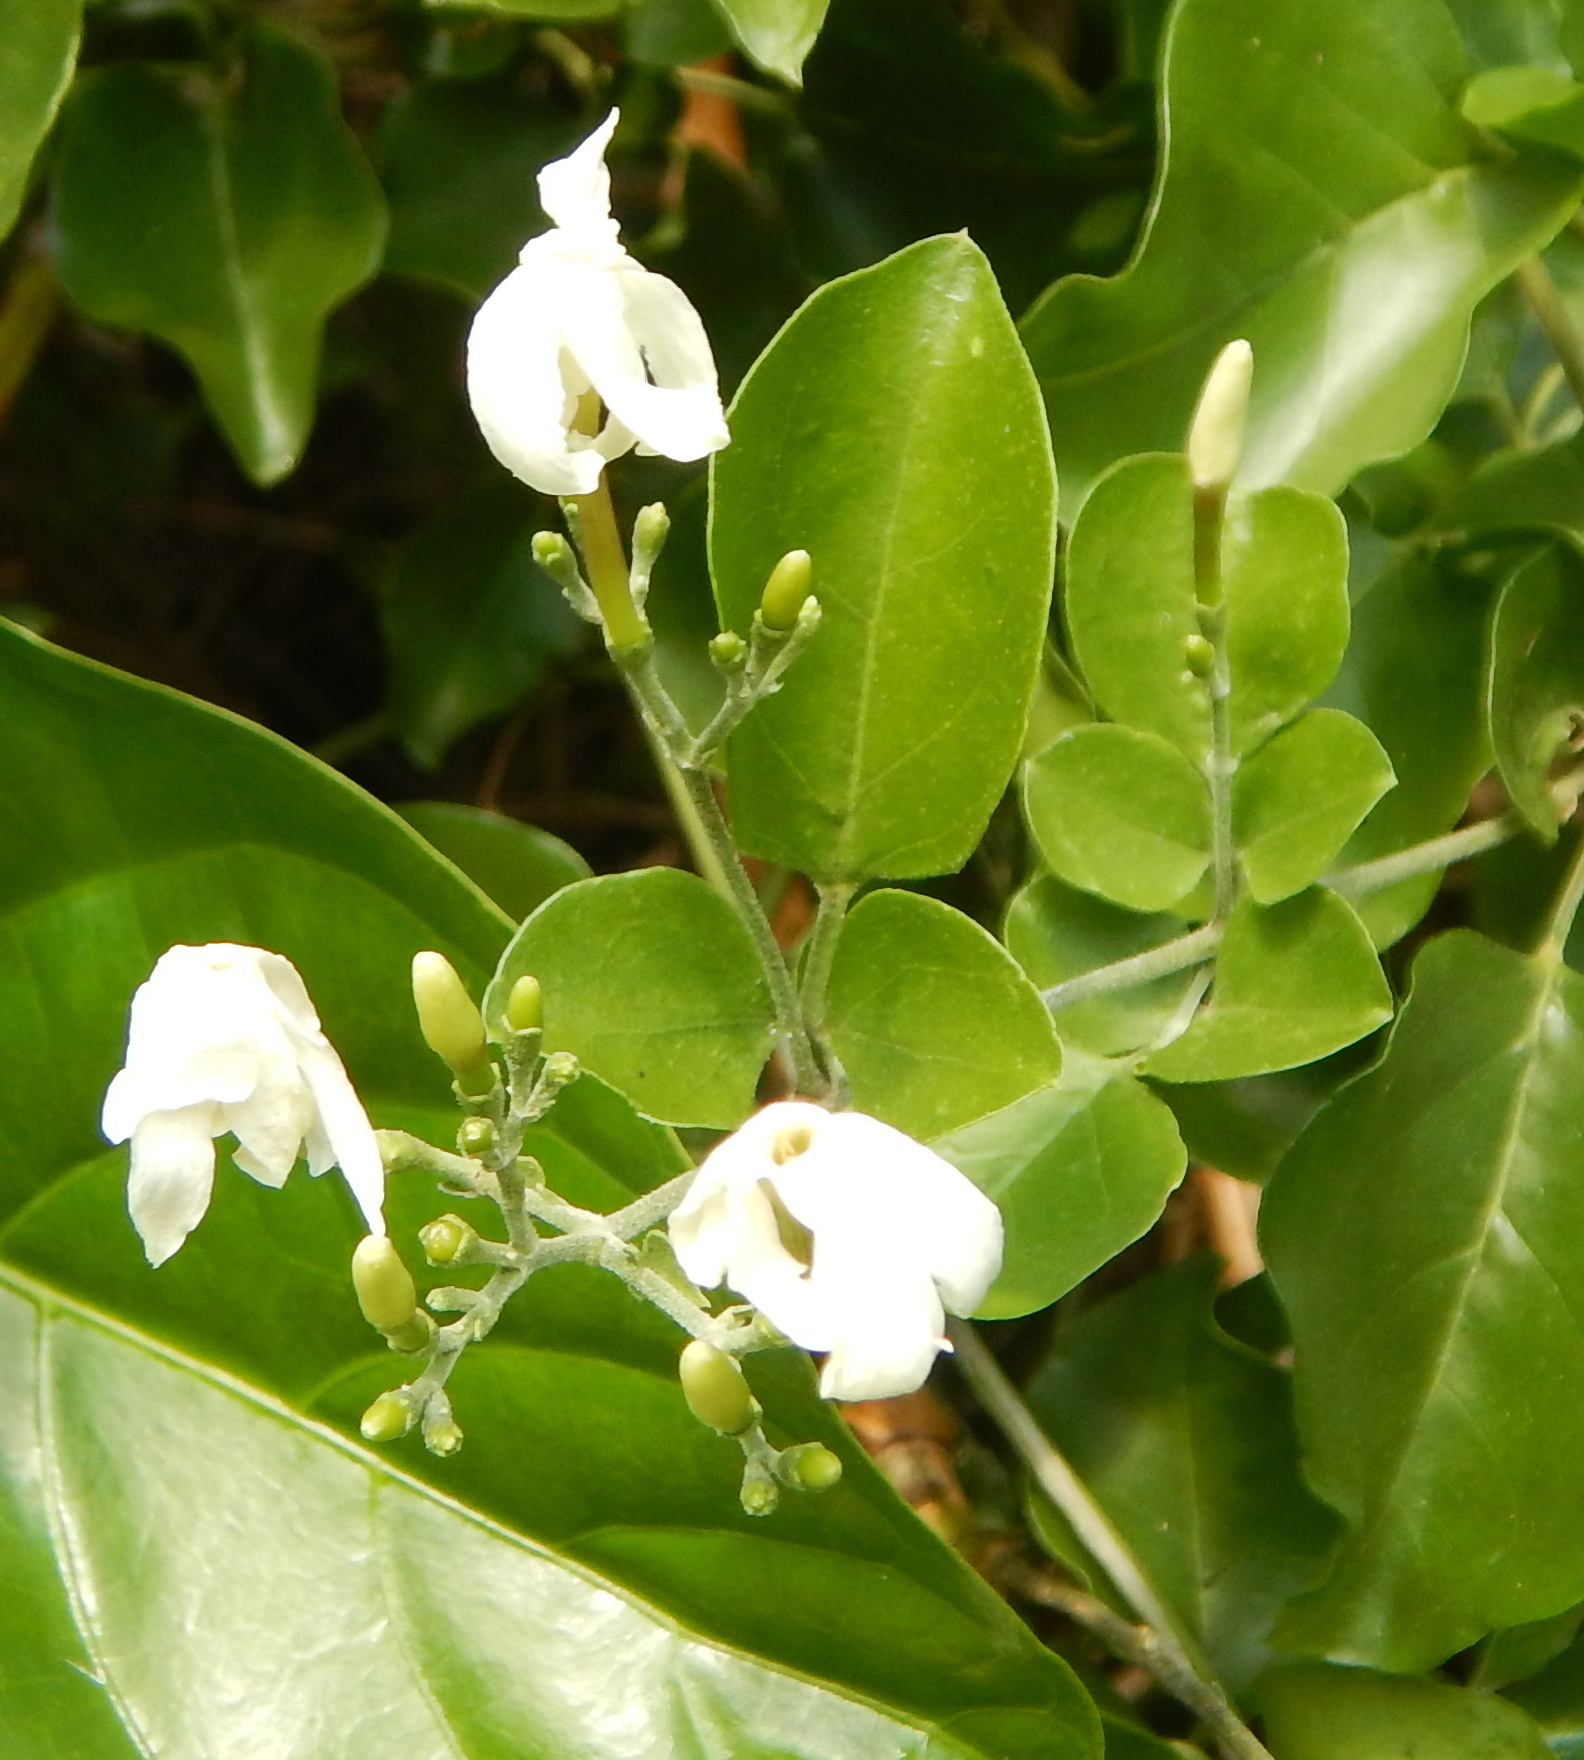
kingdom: Plantae
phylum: Tracheophyta
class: Magnoliopsida
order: Lamiales
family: Oleaceae
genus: Jasminum
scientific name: Jasminum fluminense
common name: Brazilian jasmine
